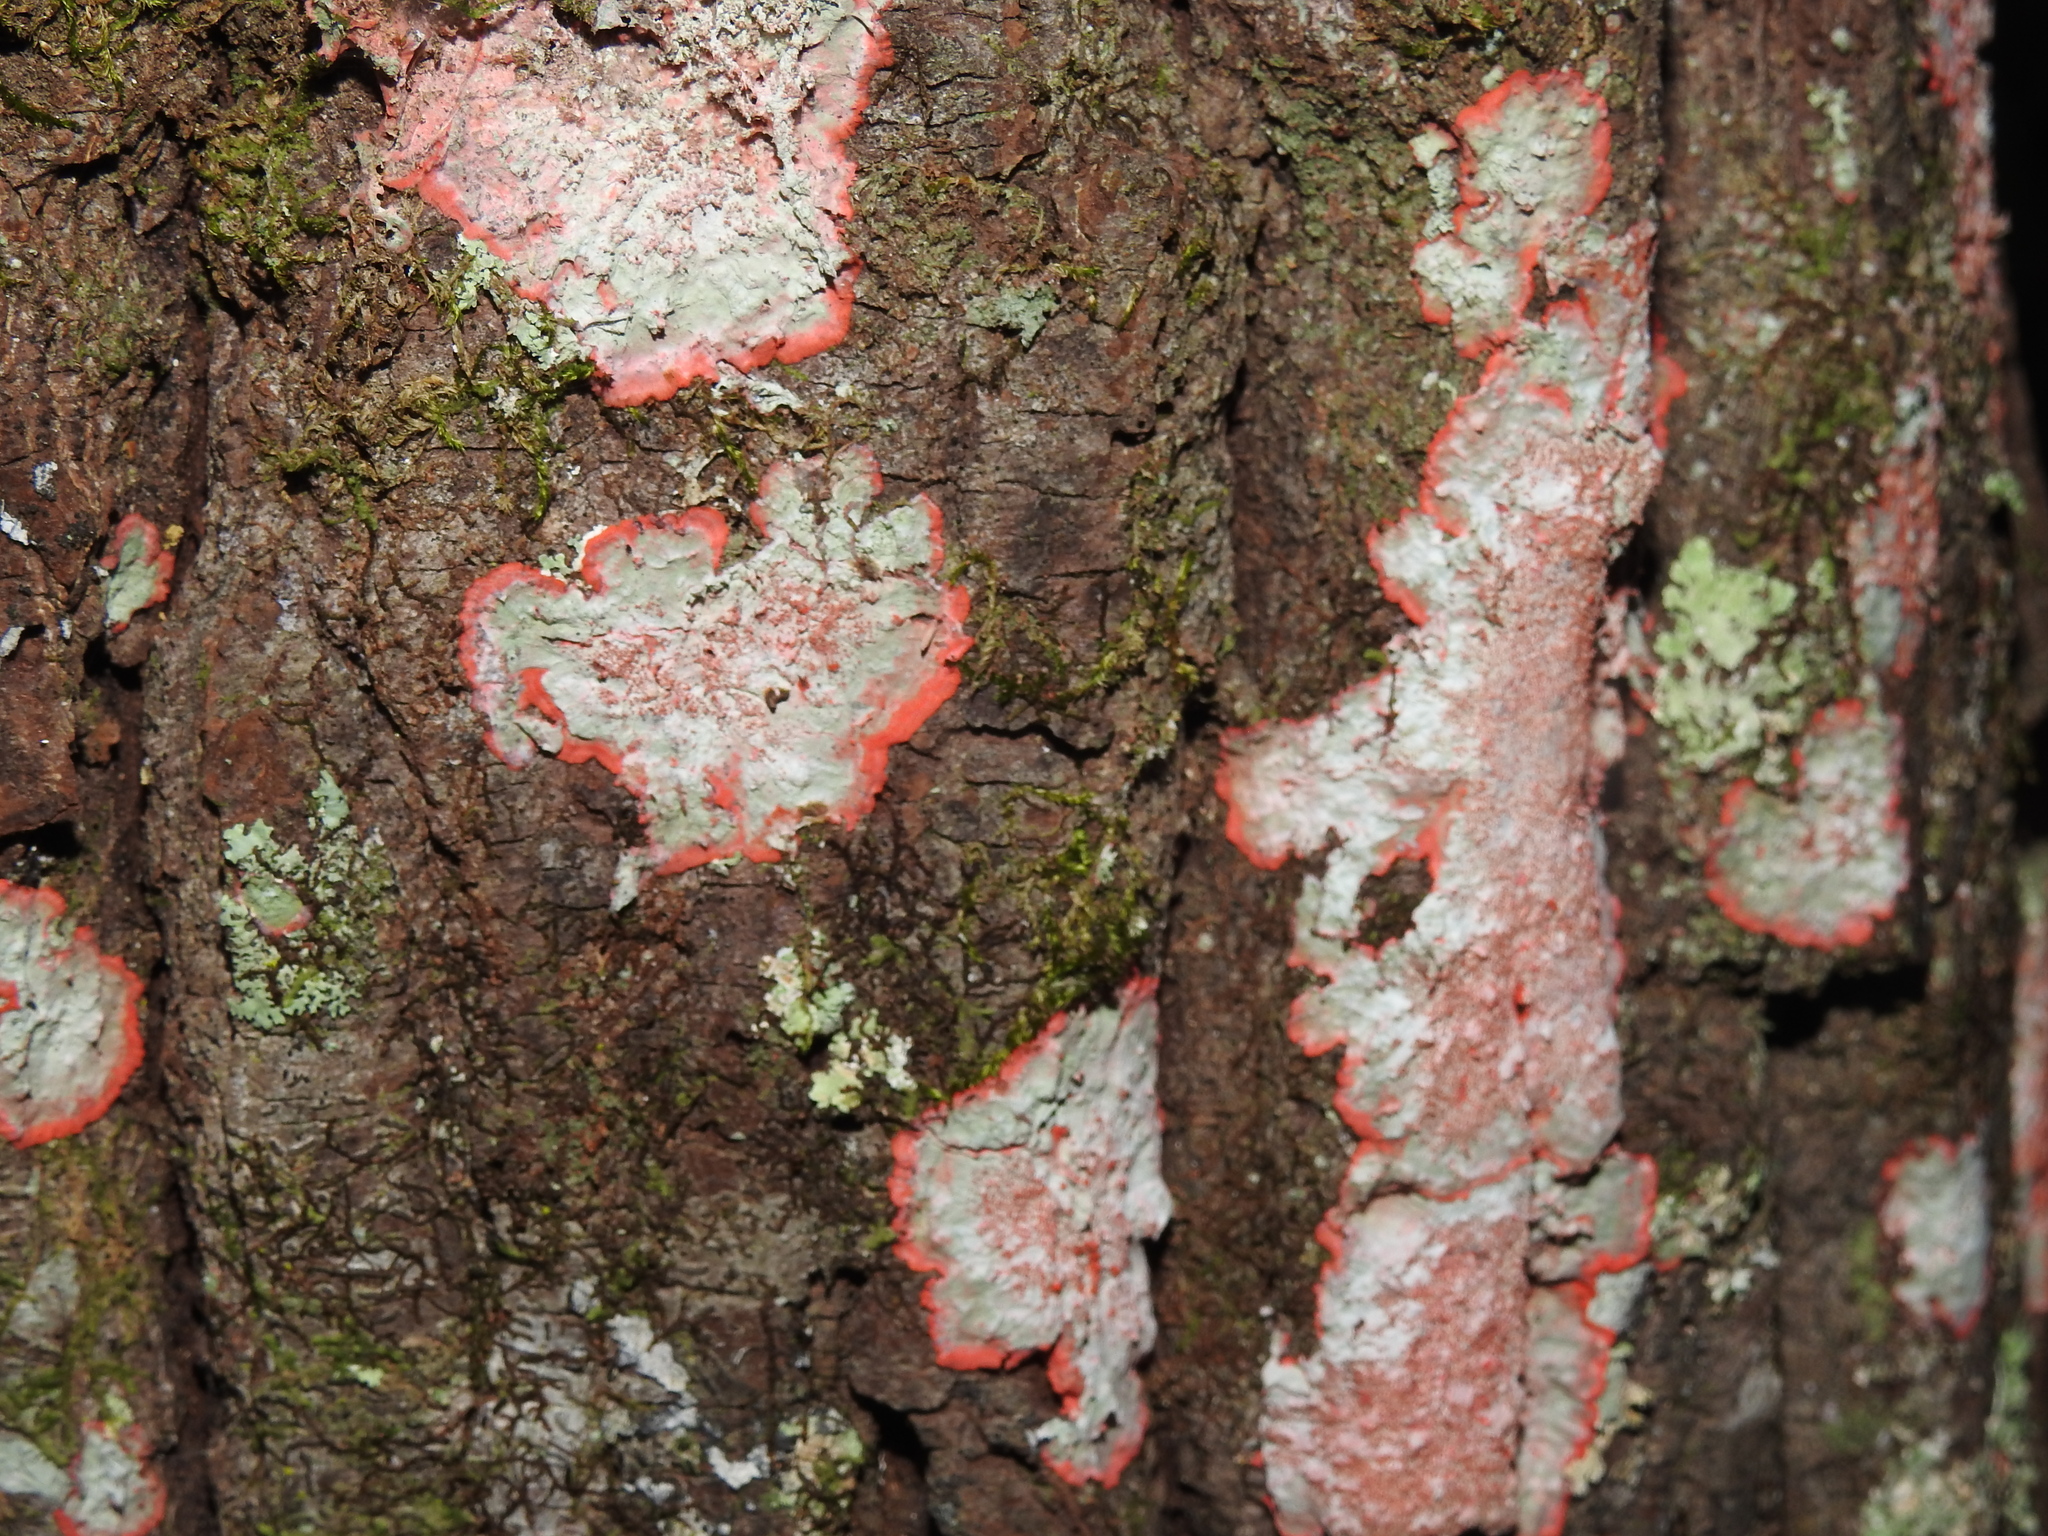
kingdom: Fungi
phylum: Ascomycota
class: Arthoniomycetes
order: Arthoniales
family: Arthoniaceae
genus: Herpothallon
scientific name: Herpothallon rubrocinctum
